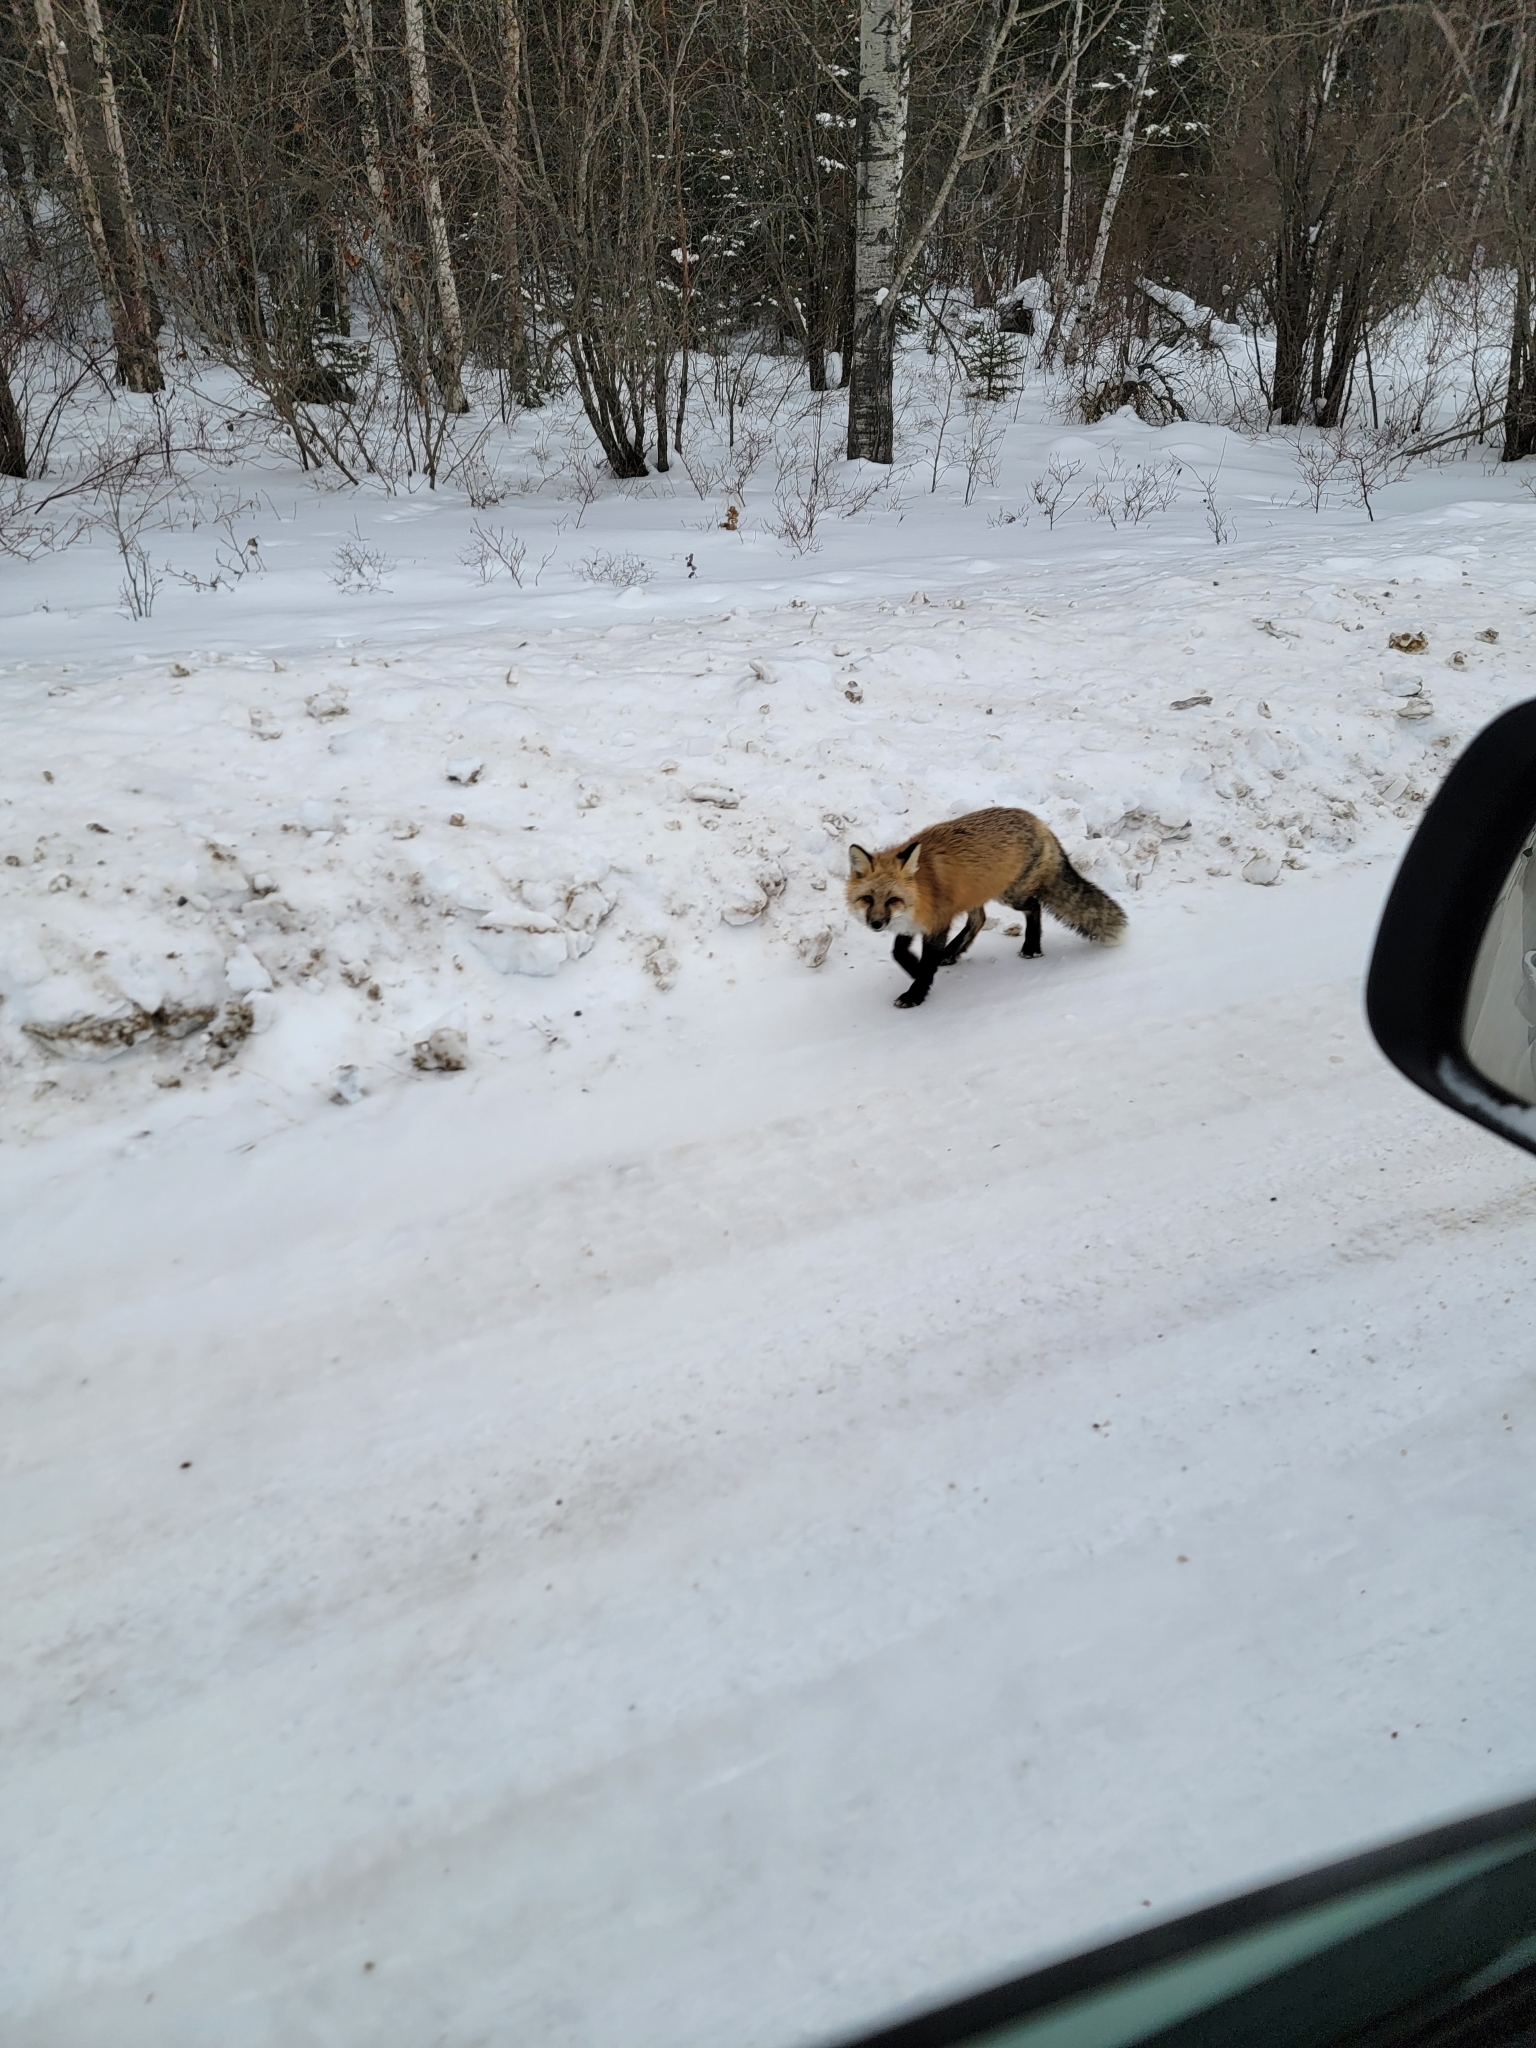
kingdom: Animalia
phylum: Chordata
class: Mammalia
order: Carnivora
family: Canidae
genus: Vulpes
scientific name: Vulpes vulpes
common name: Red fox
